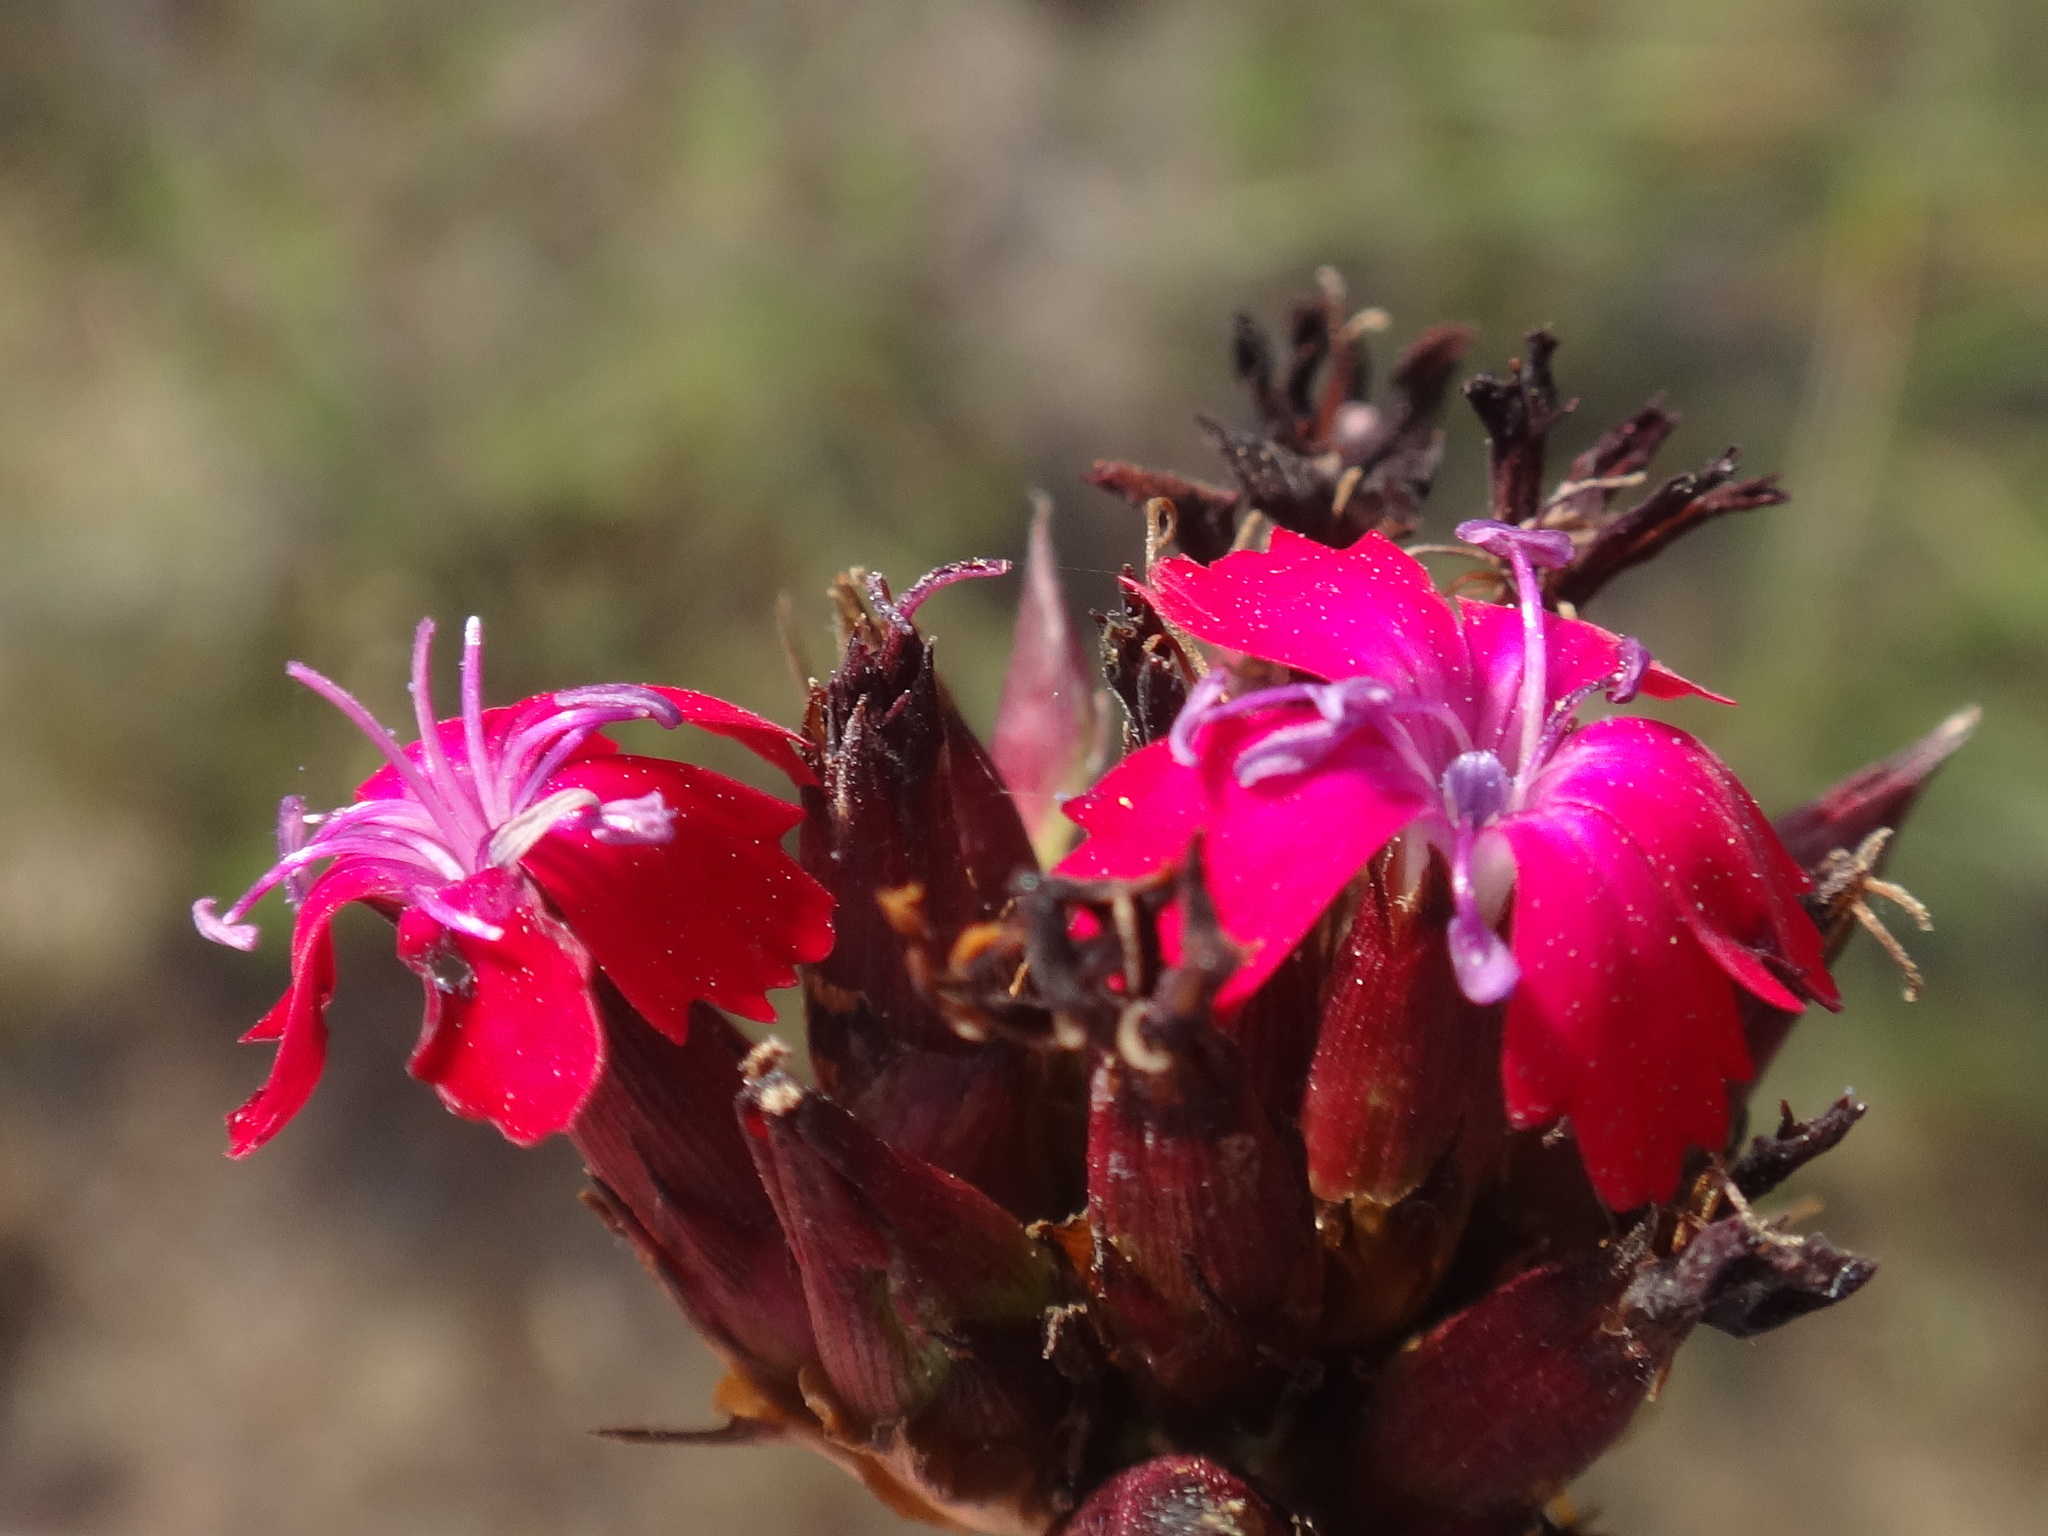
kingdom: Plantae
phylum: Tracheophyta
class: Magnoliopsida
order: Caryophyllales
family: Caryophyllaceae
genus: Dianthus
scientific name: Dianthus carthusianorum
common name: Carthusian pink
